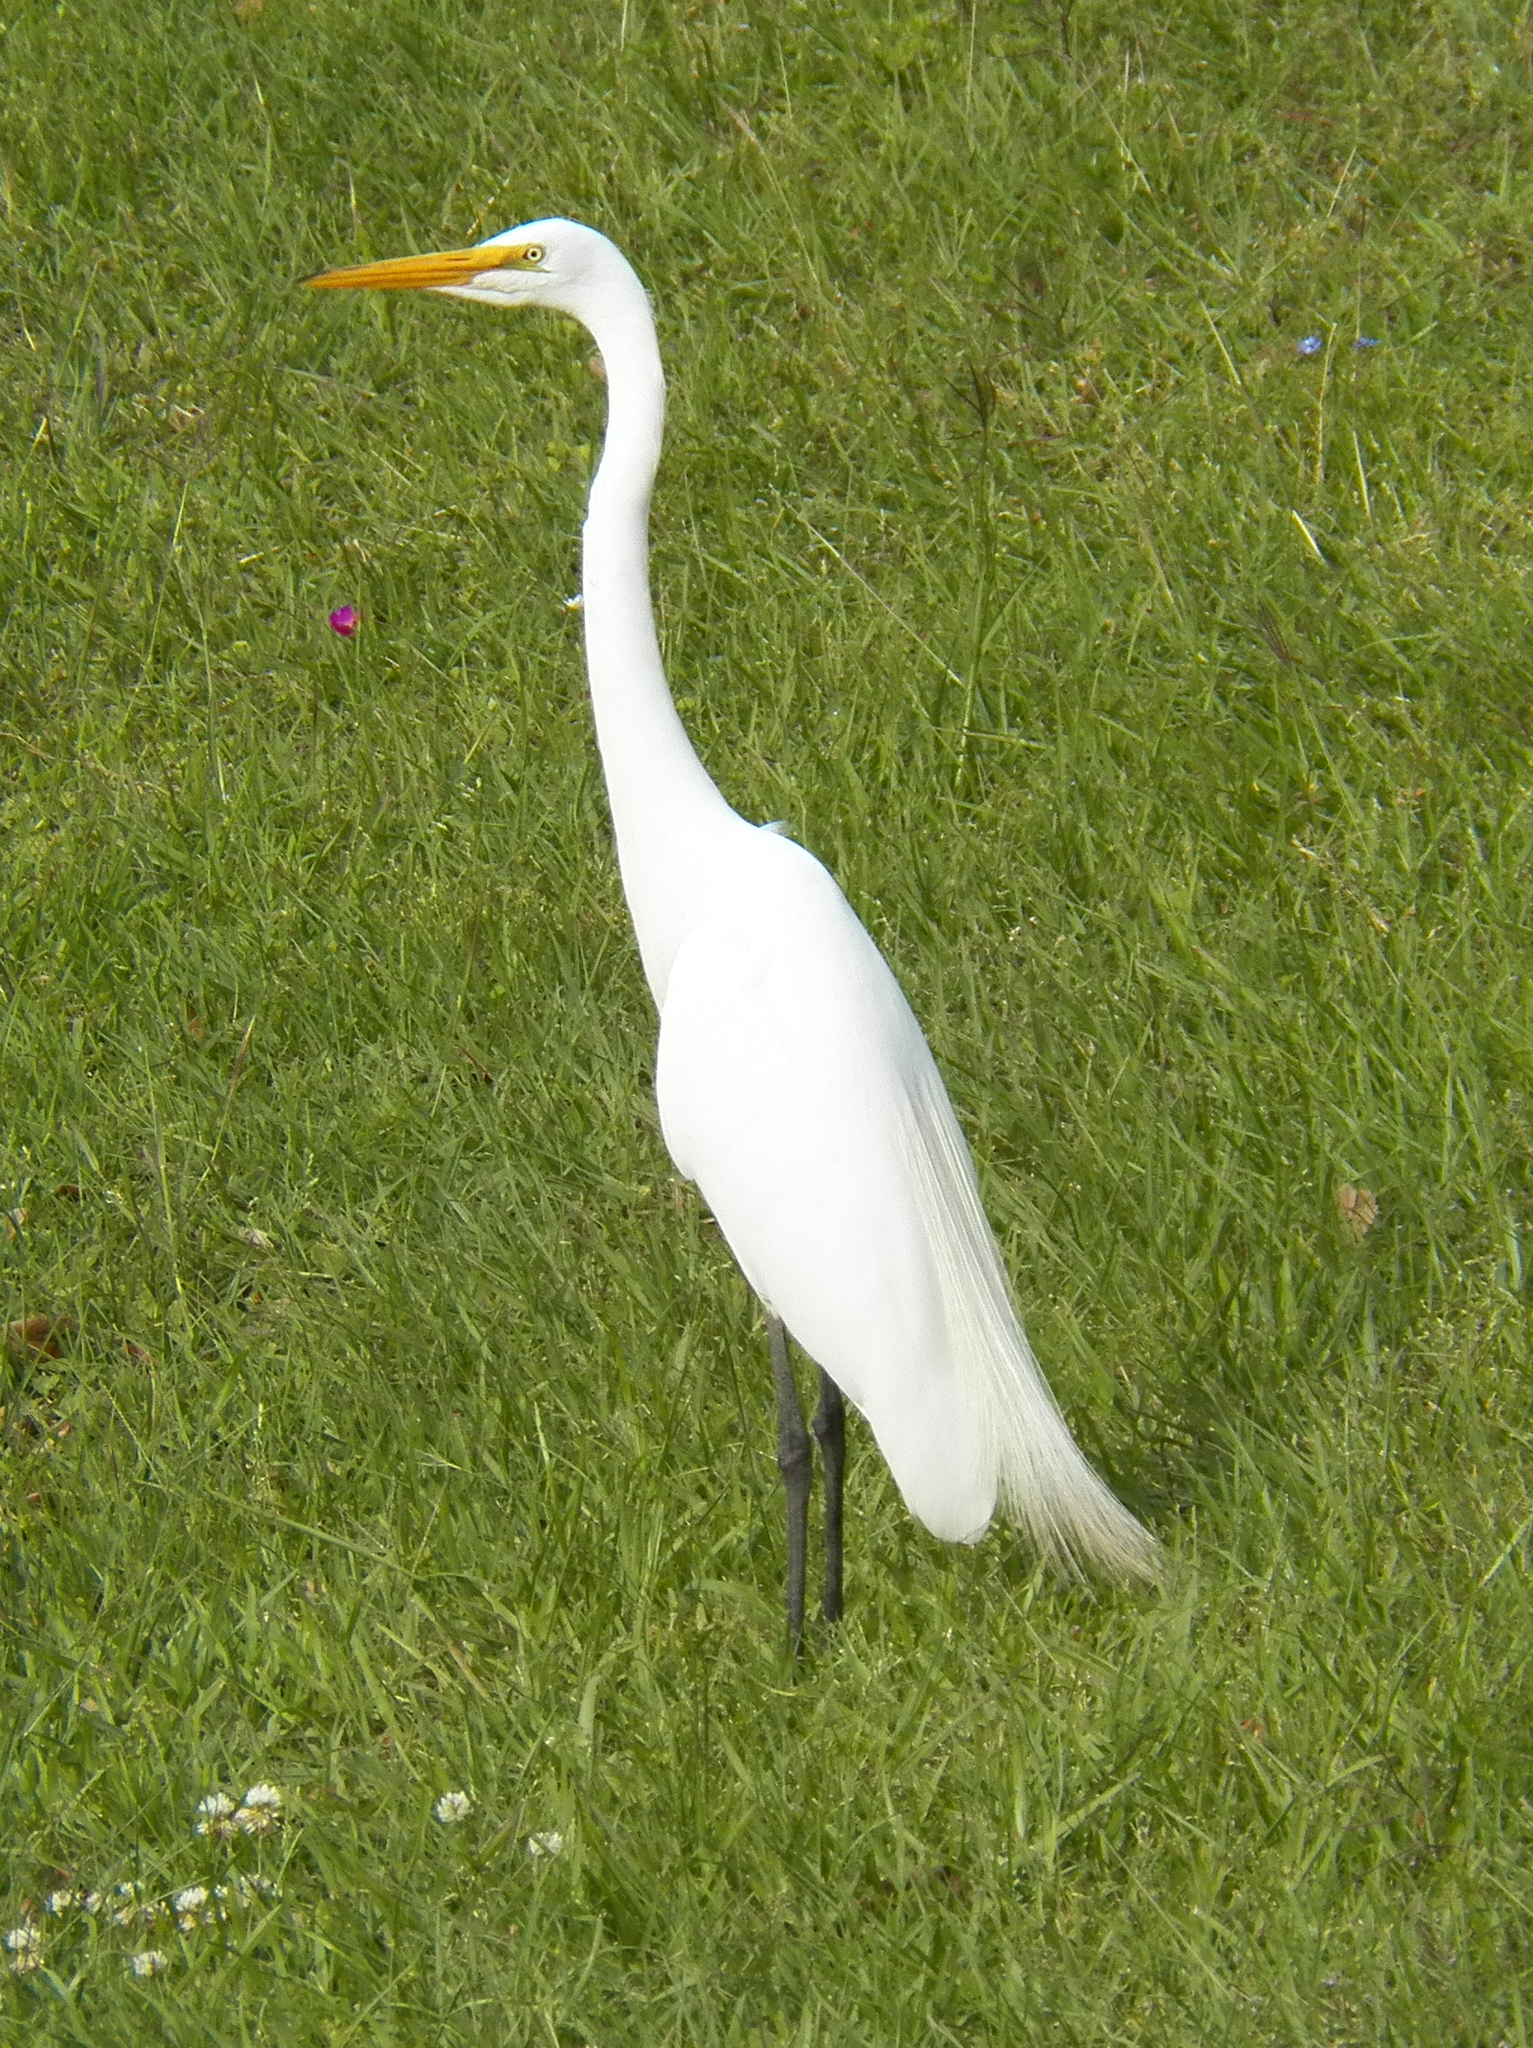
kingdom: Animalia
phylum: Chordata
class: Aves
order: Pelecaniformes
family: Ardeidae
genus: Ardea
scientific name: Ardea alba
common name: Great egret
